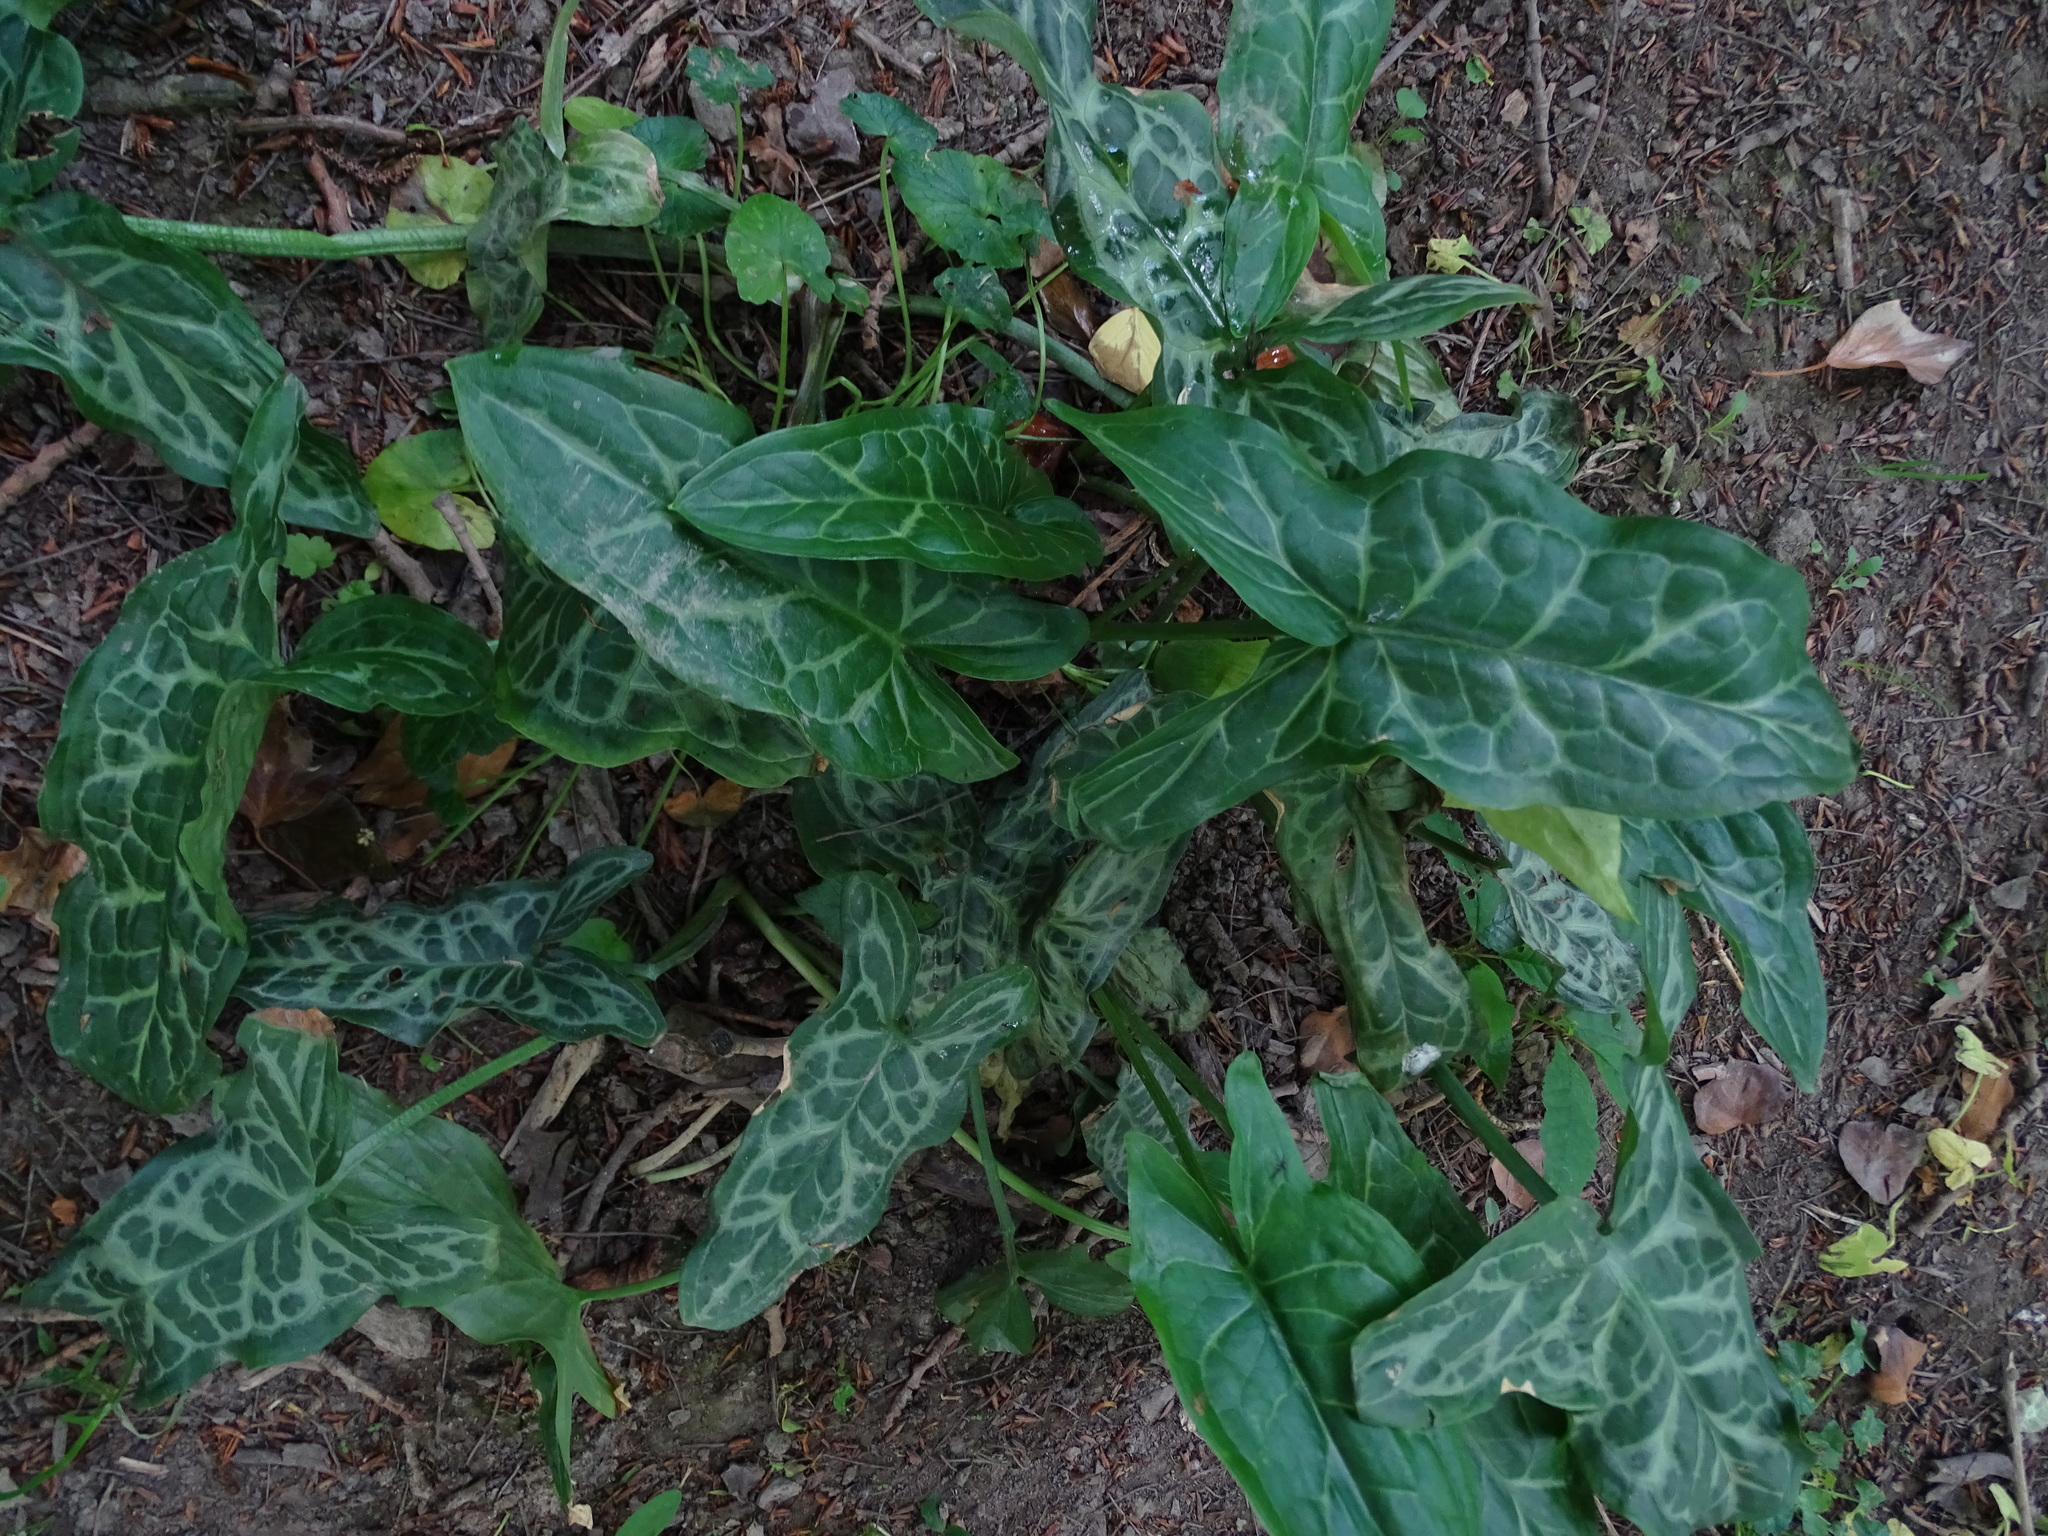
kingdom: Plantae
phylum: Tracheophyta
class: Liliopsida
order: Alismatales
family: Araceae
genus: Arum
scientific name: Arum italicum
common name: Italian lords-and-ladies
